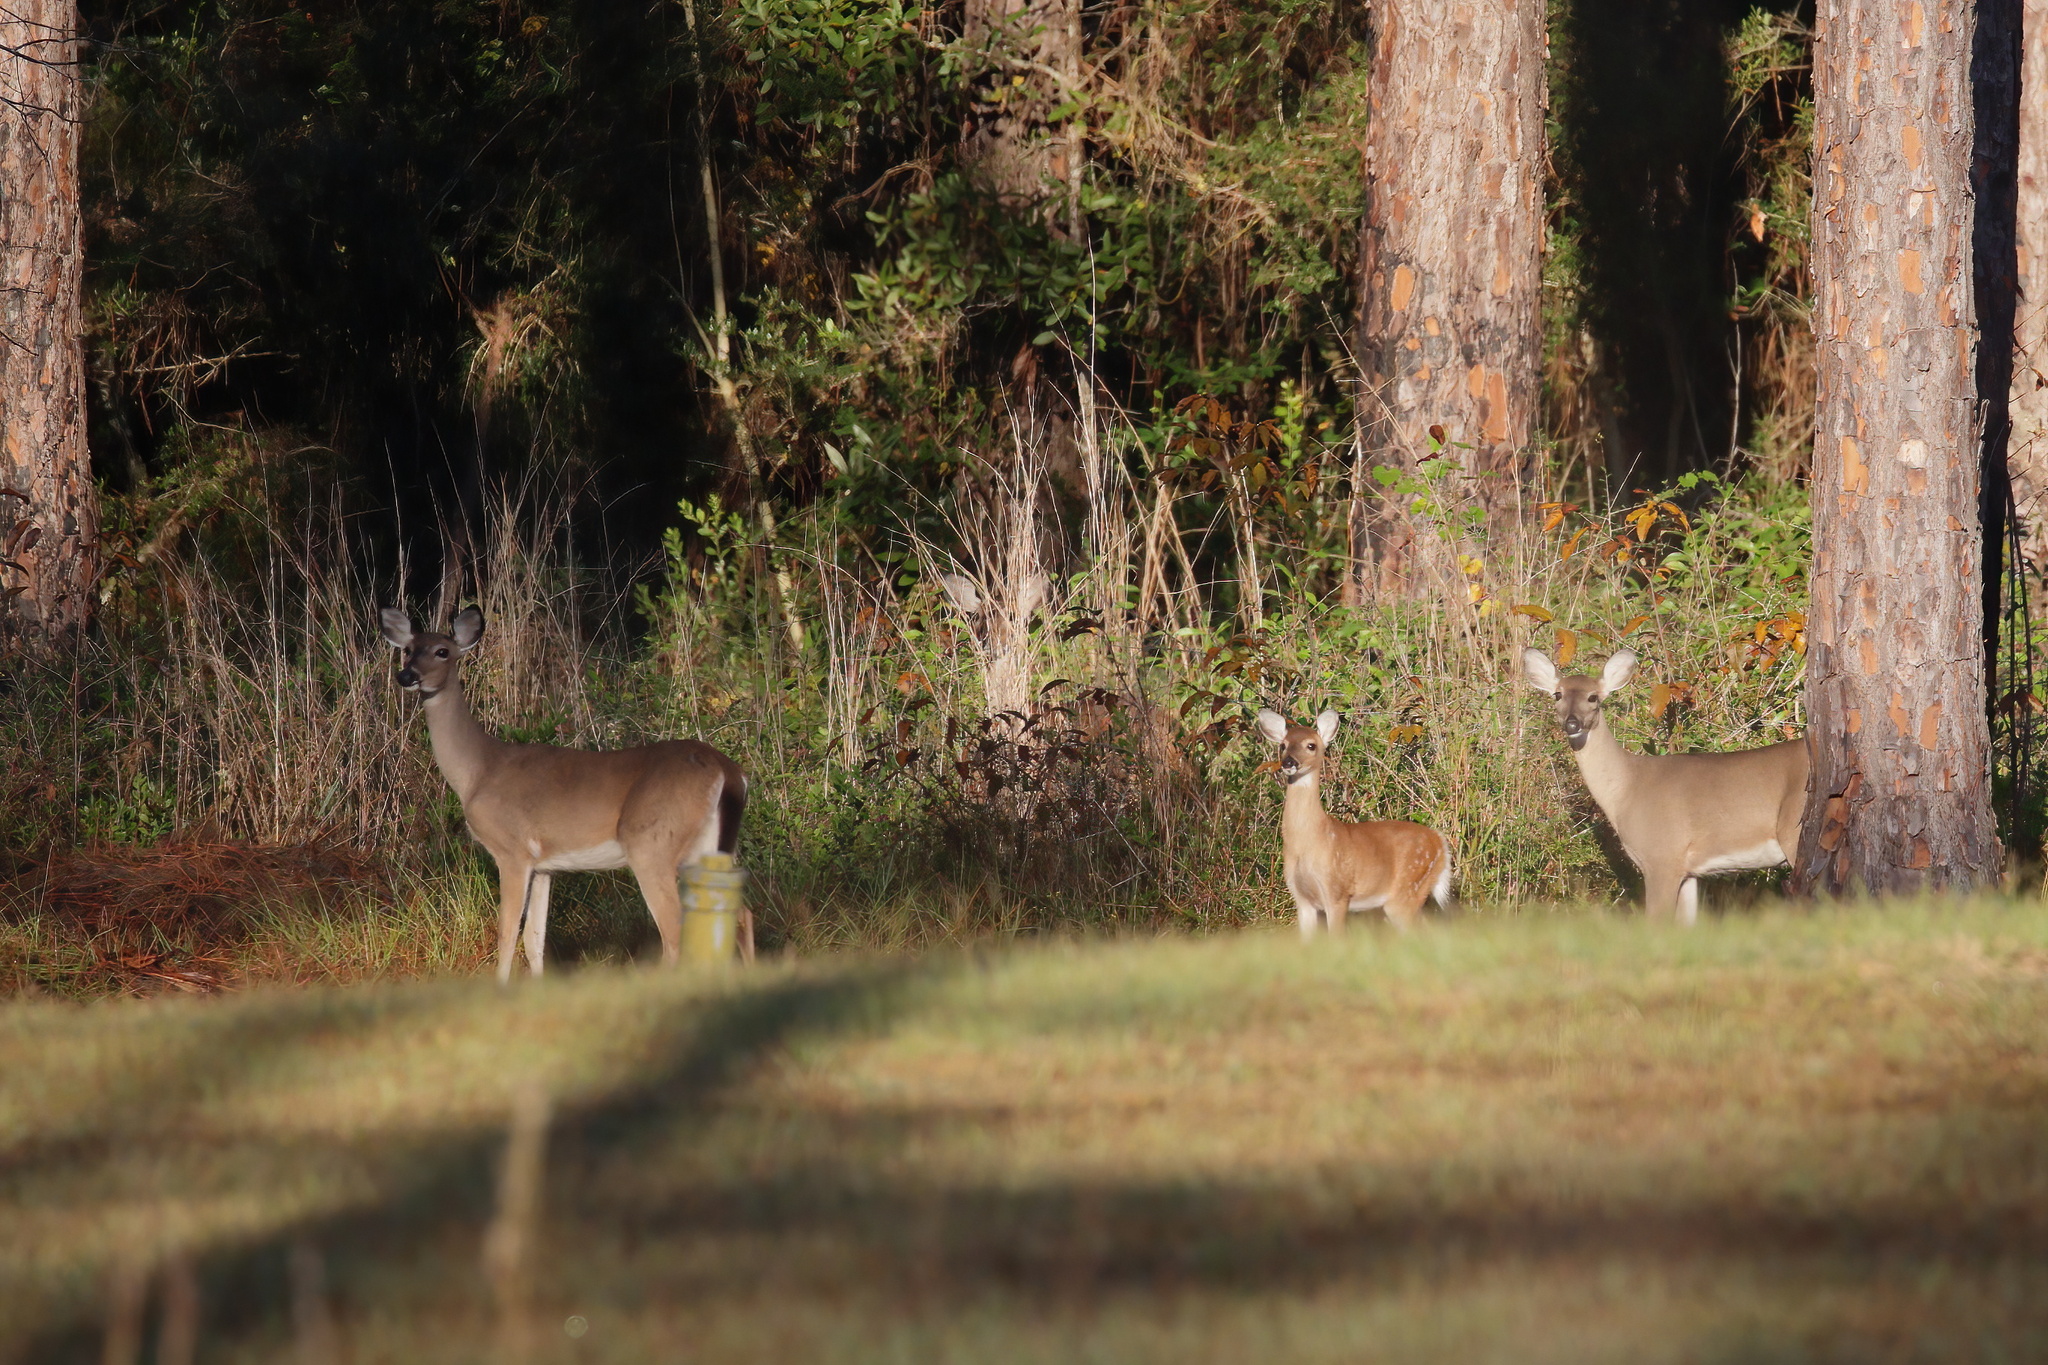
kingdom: Animalia
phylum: Chordata
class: Mammalia
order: Artiodactyla
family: Cervidae
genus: Odocoileus
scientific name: Odocoileus virginianus
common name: White-tailed deer
